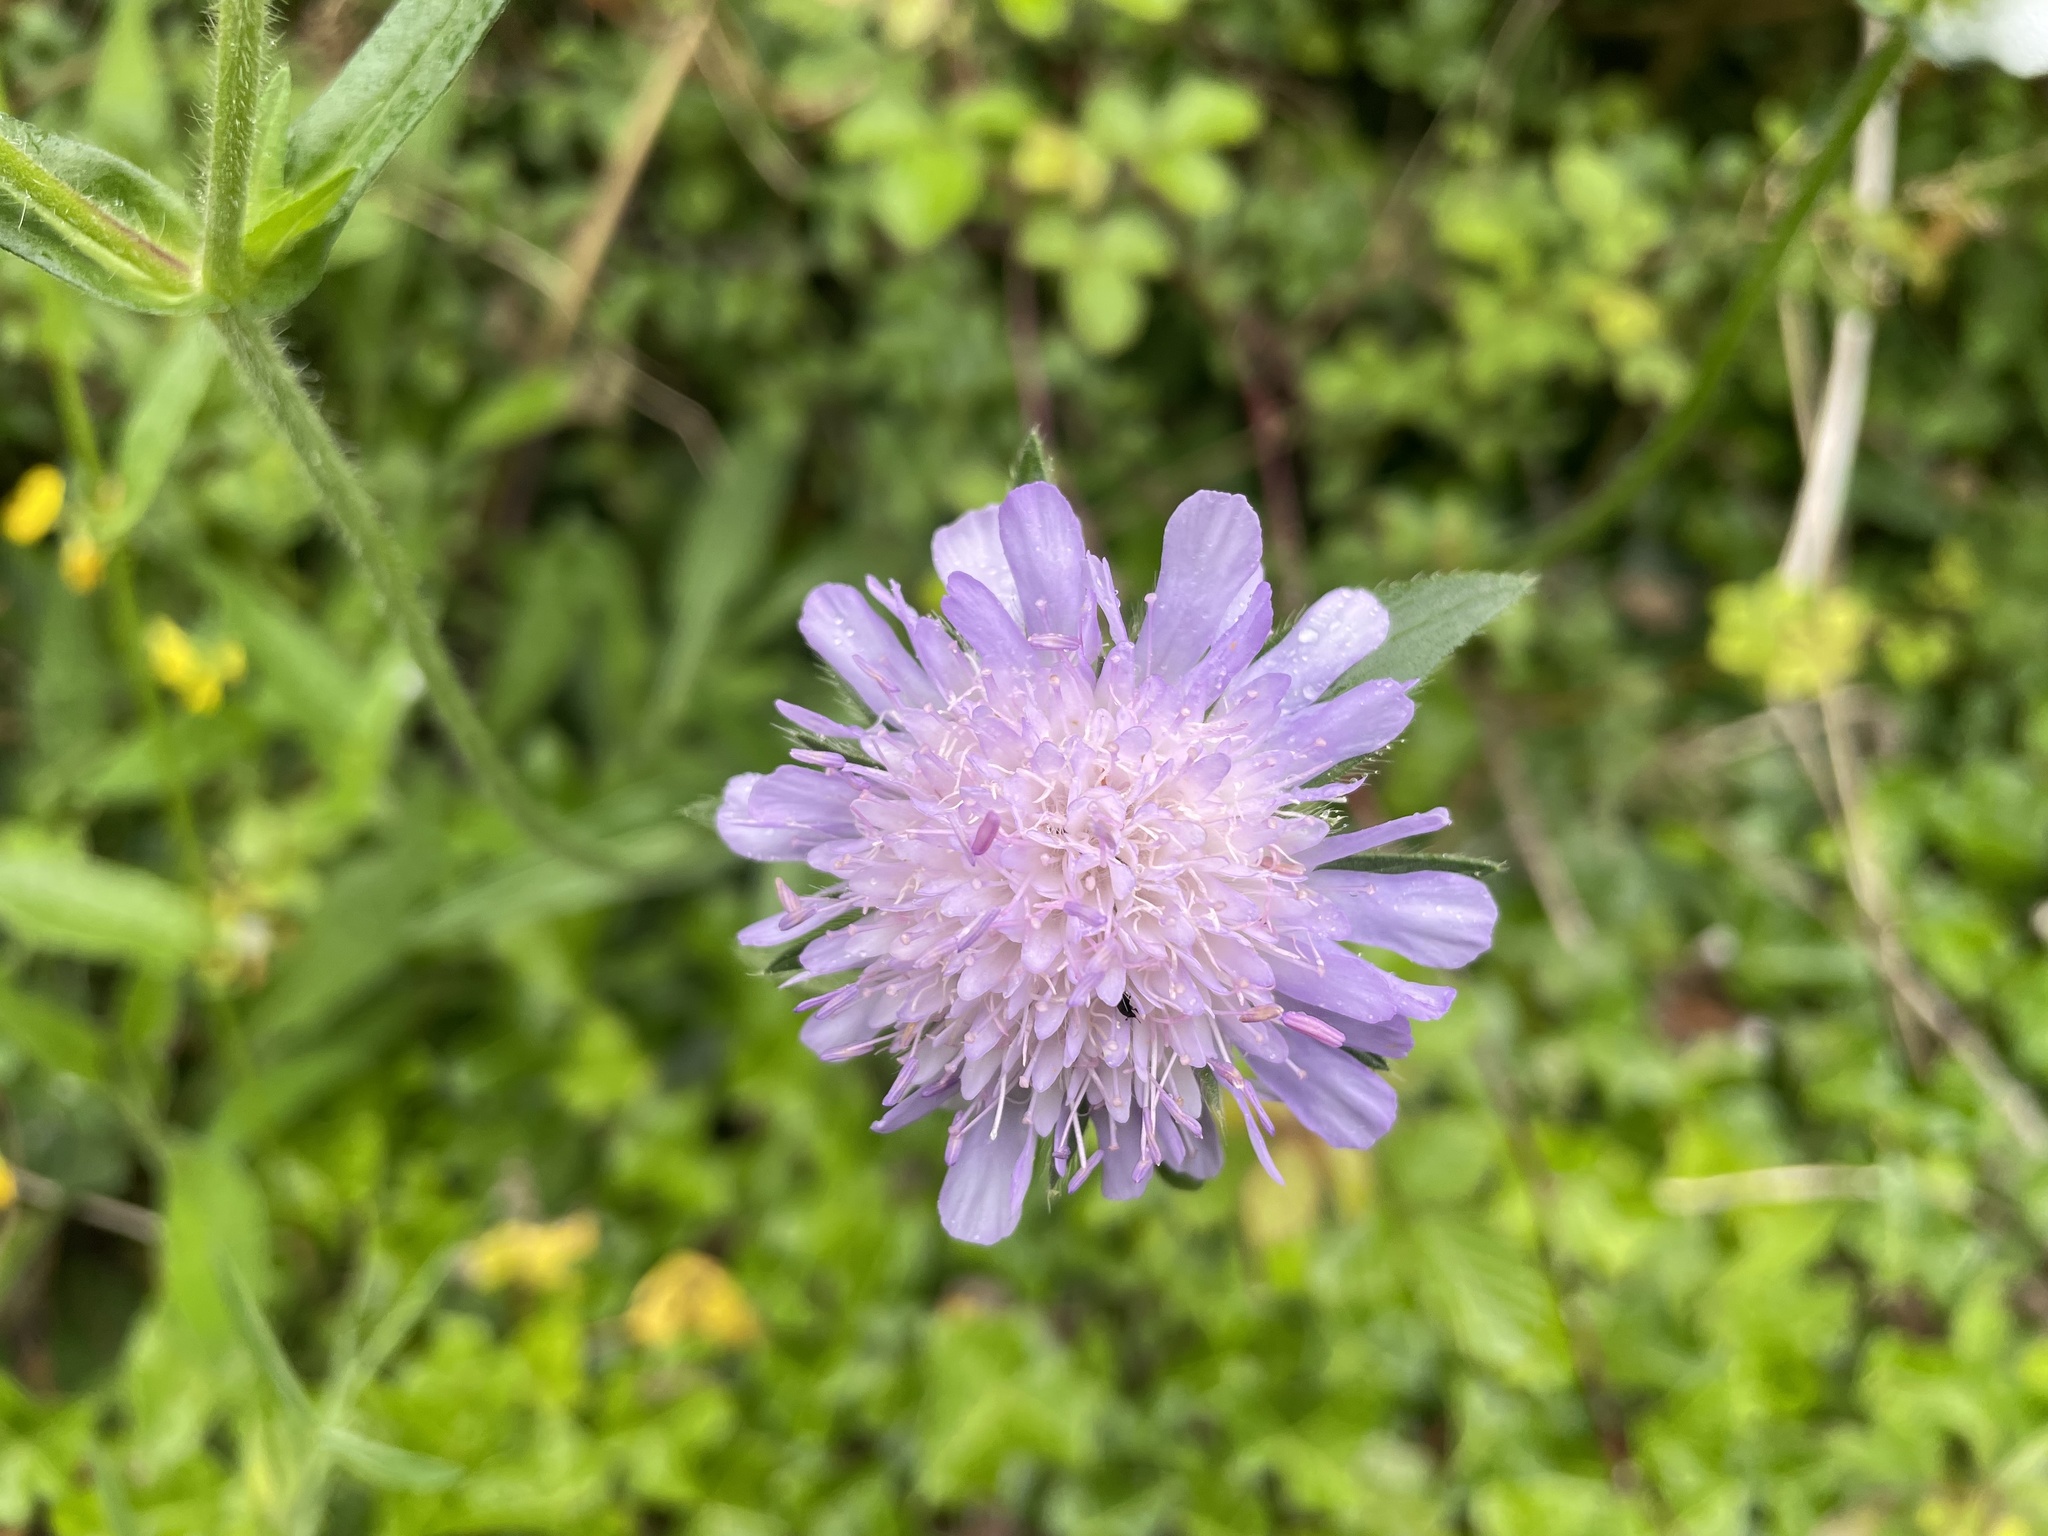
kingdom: Plantae
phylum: Tracheophyta
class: Magnoliopsida
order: Dipsacales
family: Caprifoliaceae
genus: Knautia
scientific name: Knautia arvensis
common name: Field scabiosa
